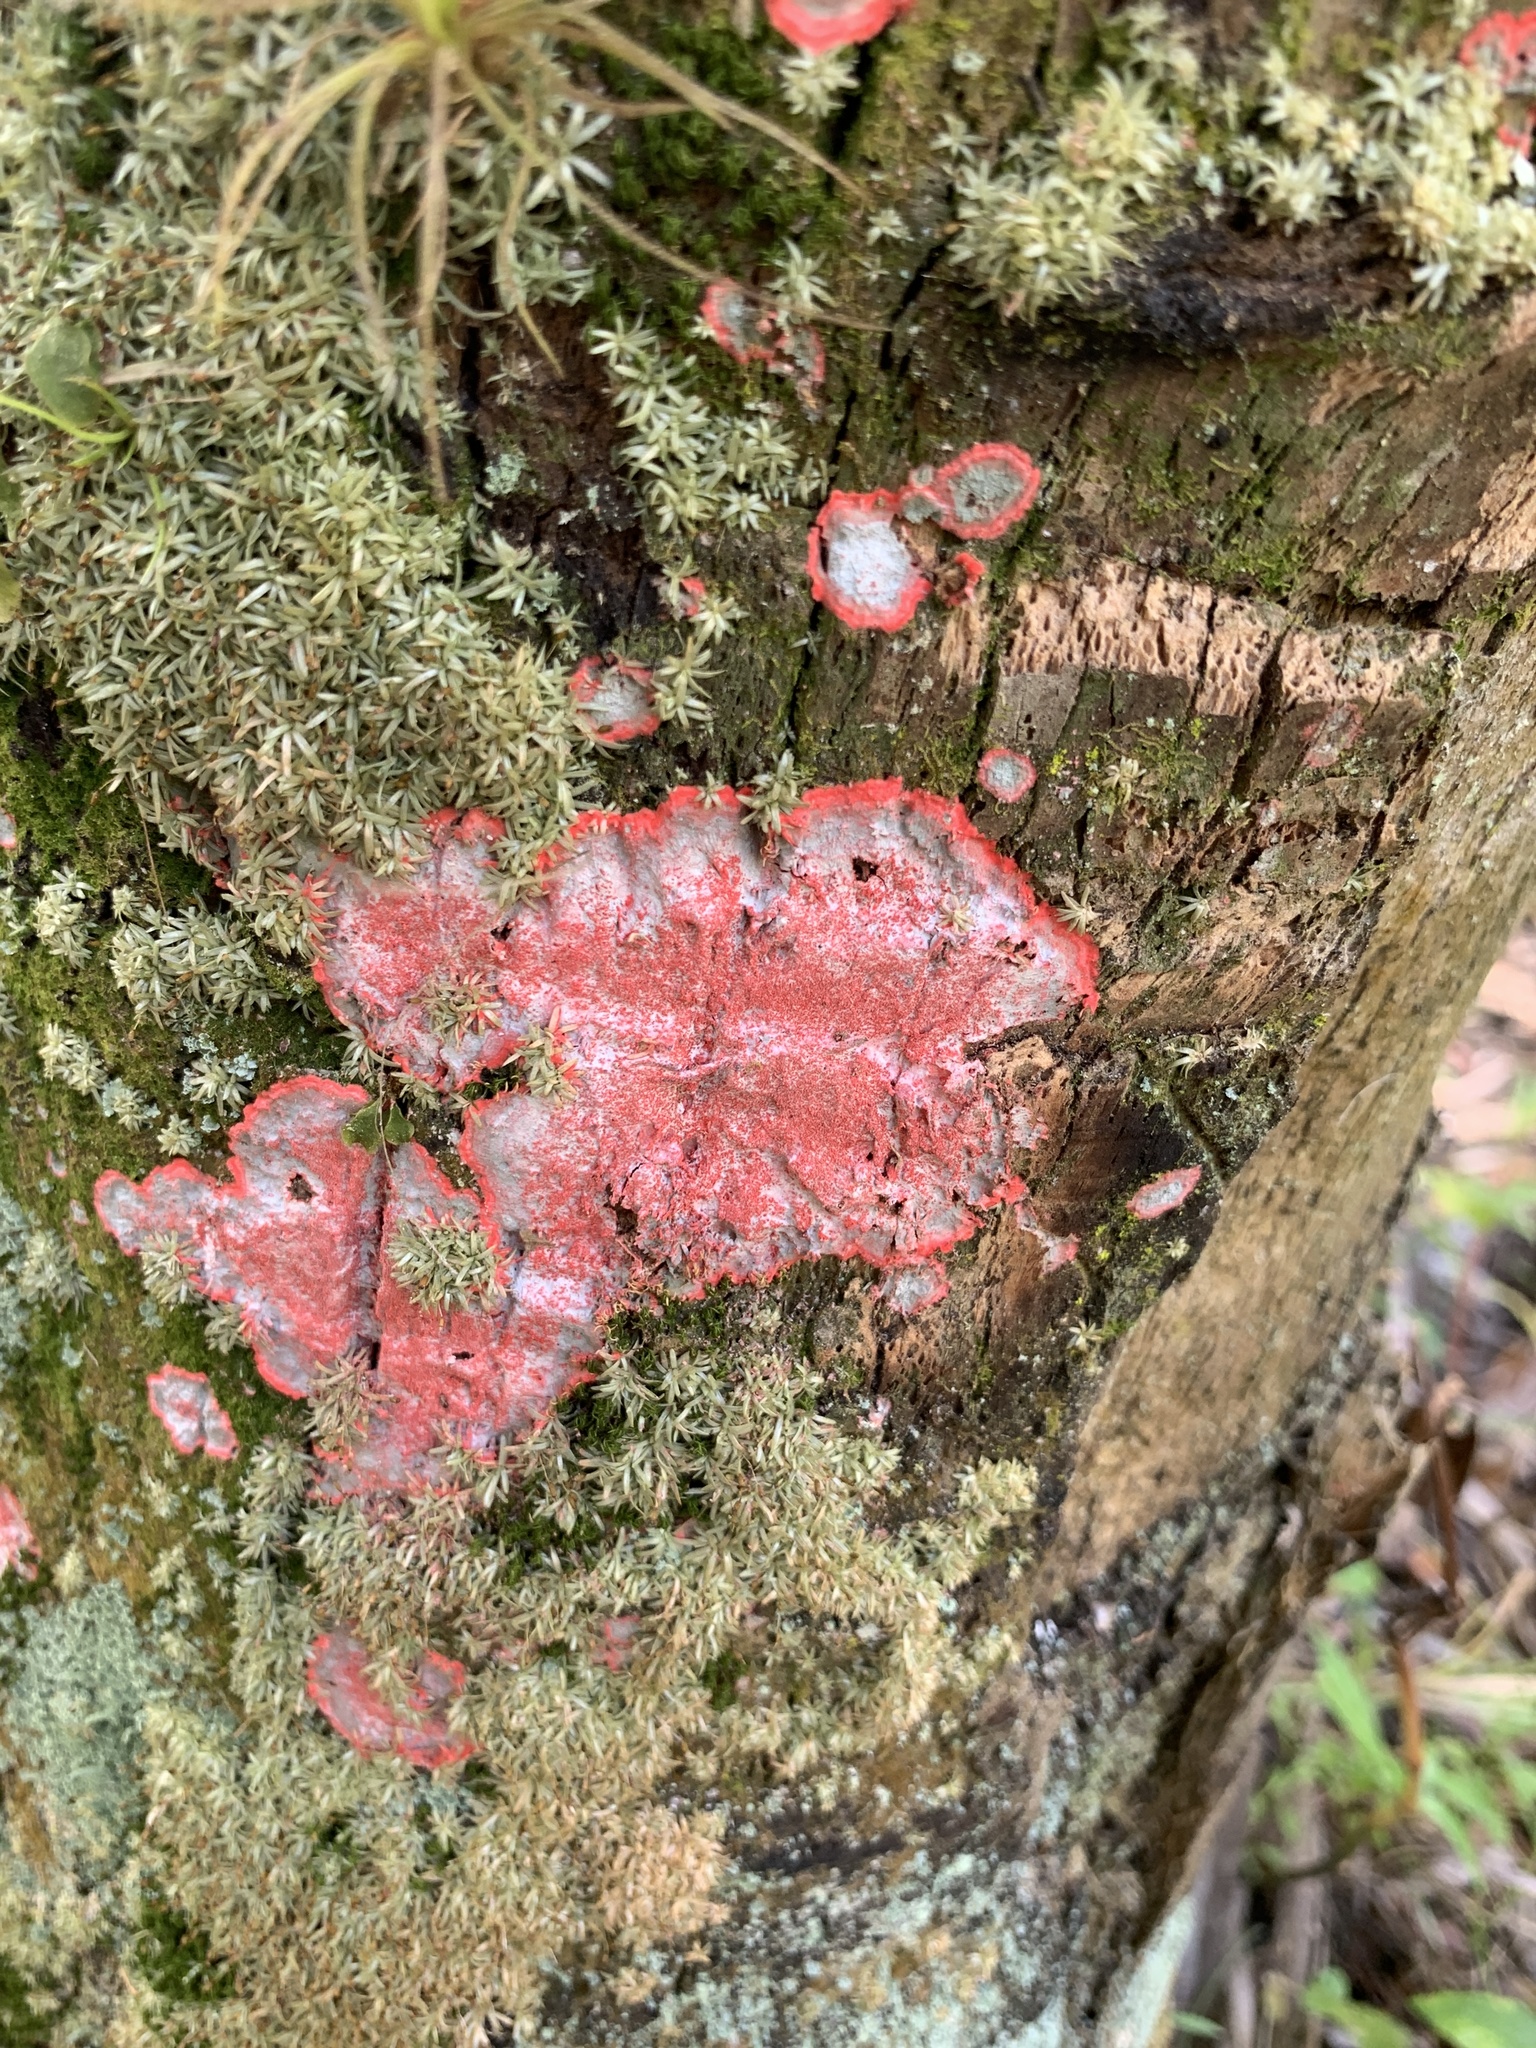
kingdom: Fungi
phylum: Ascomycota
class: Arthoniomycetes
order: Arthoniales
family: Arthoniaceae
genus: Herpothallon
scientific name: Herpothallon rubrocinctum
